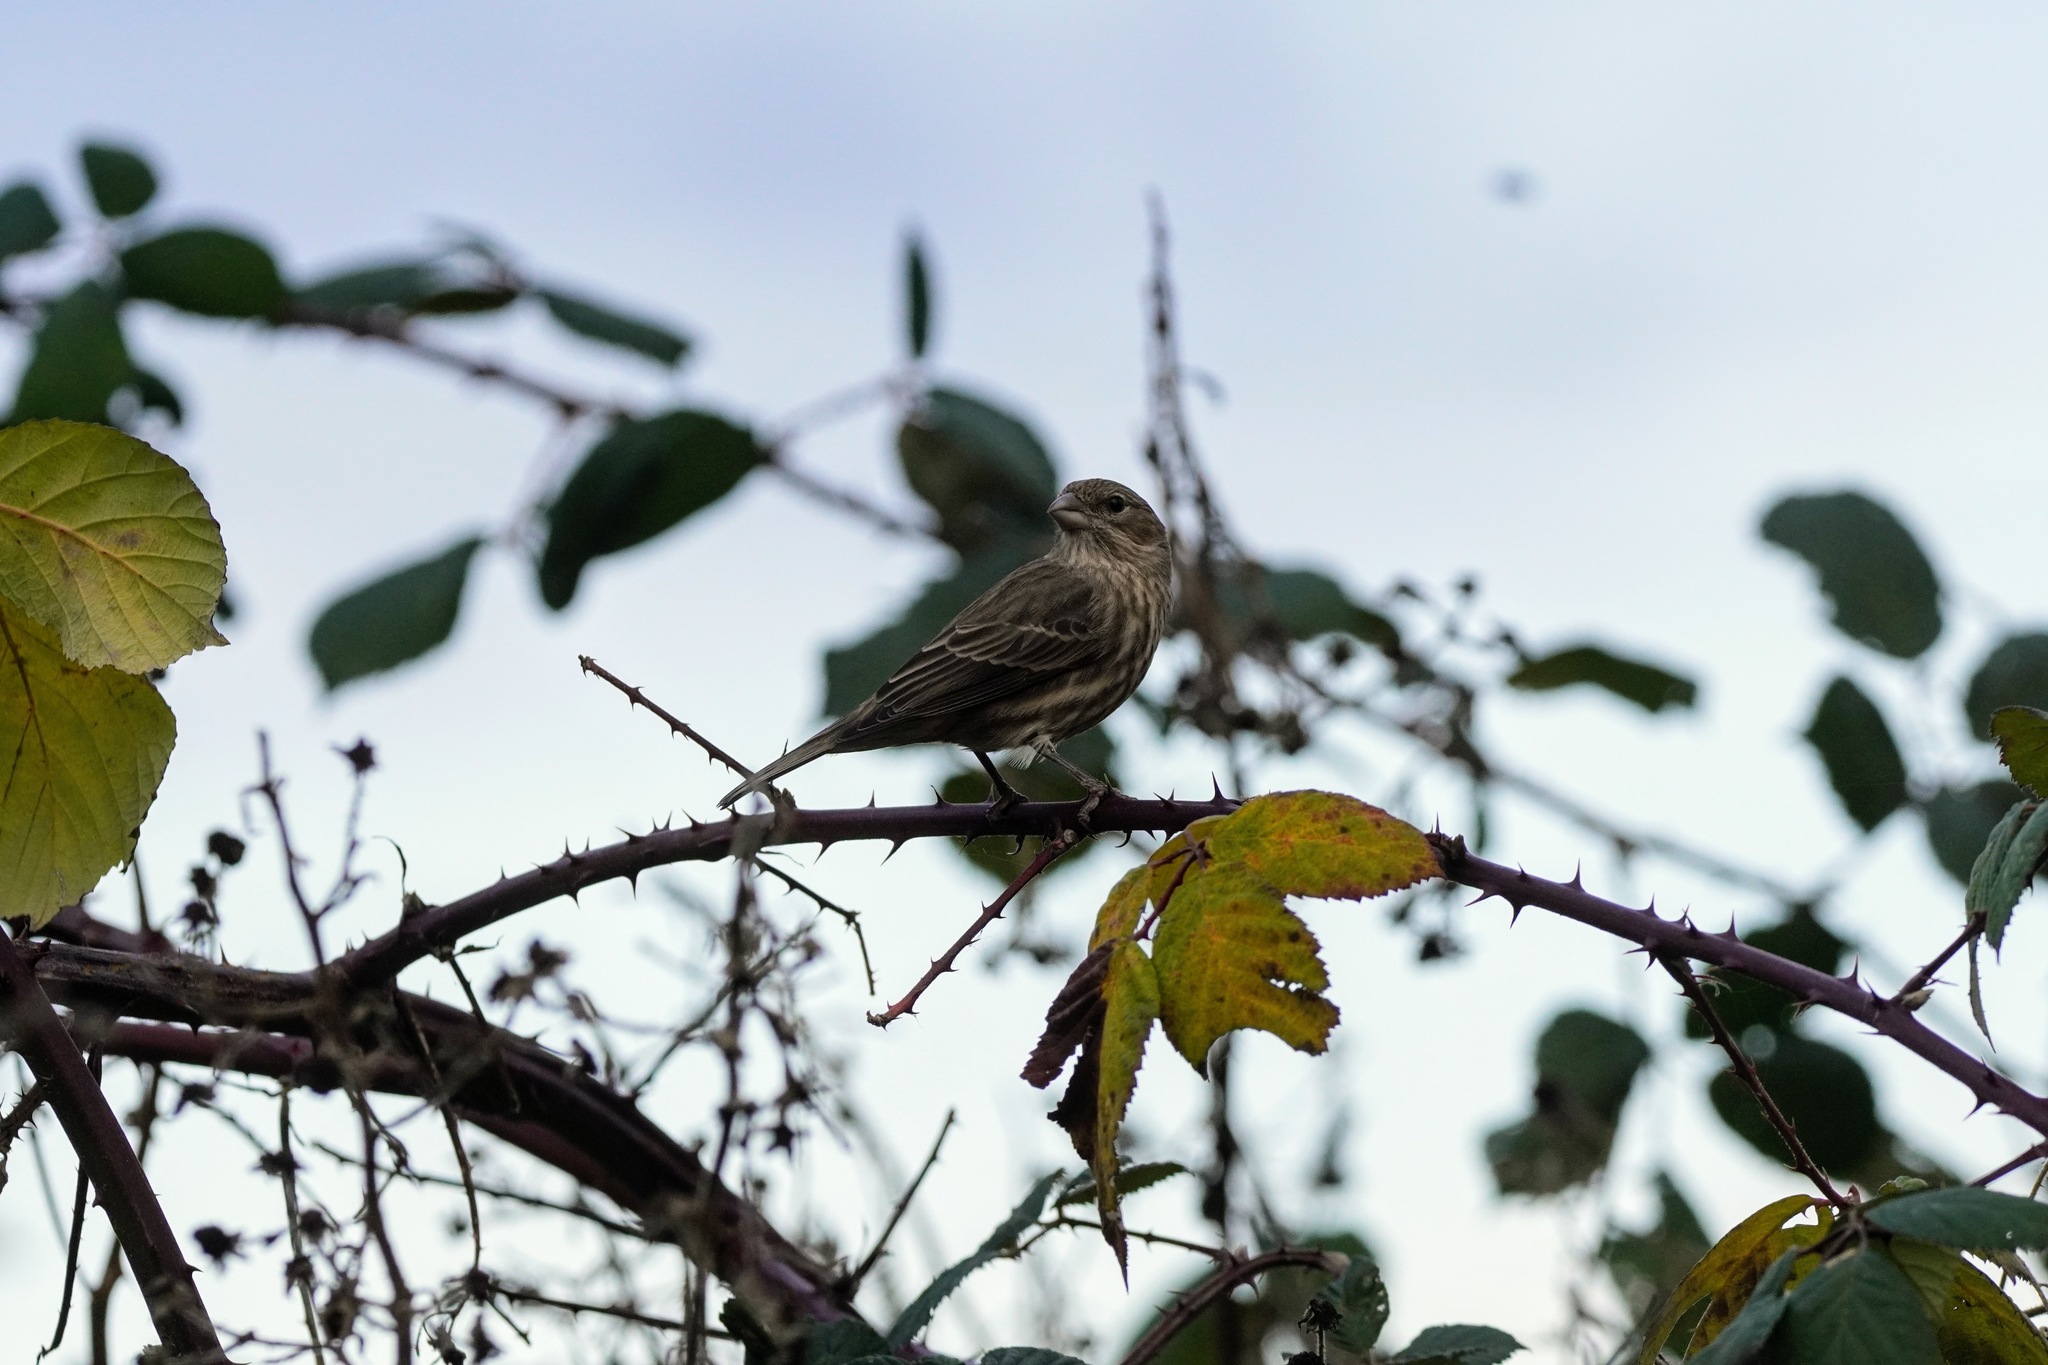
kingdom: Animalia
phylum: Chordata
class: Aves
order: Passeriformes
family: Fringillidae
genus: Haemorhous
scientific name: Haemorhous mexicanus
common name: House finch
